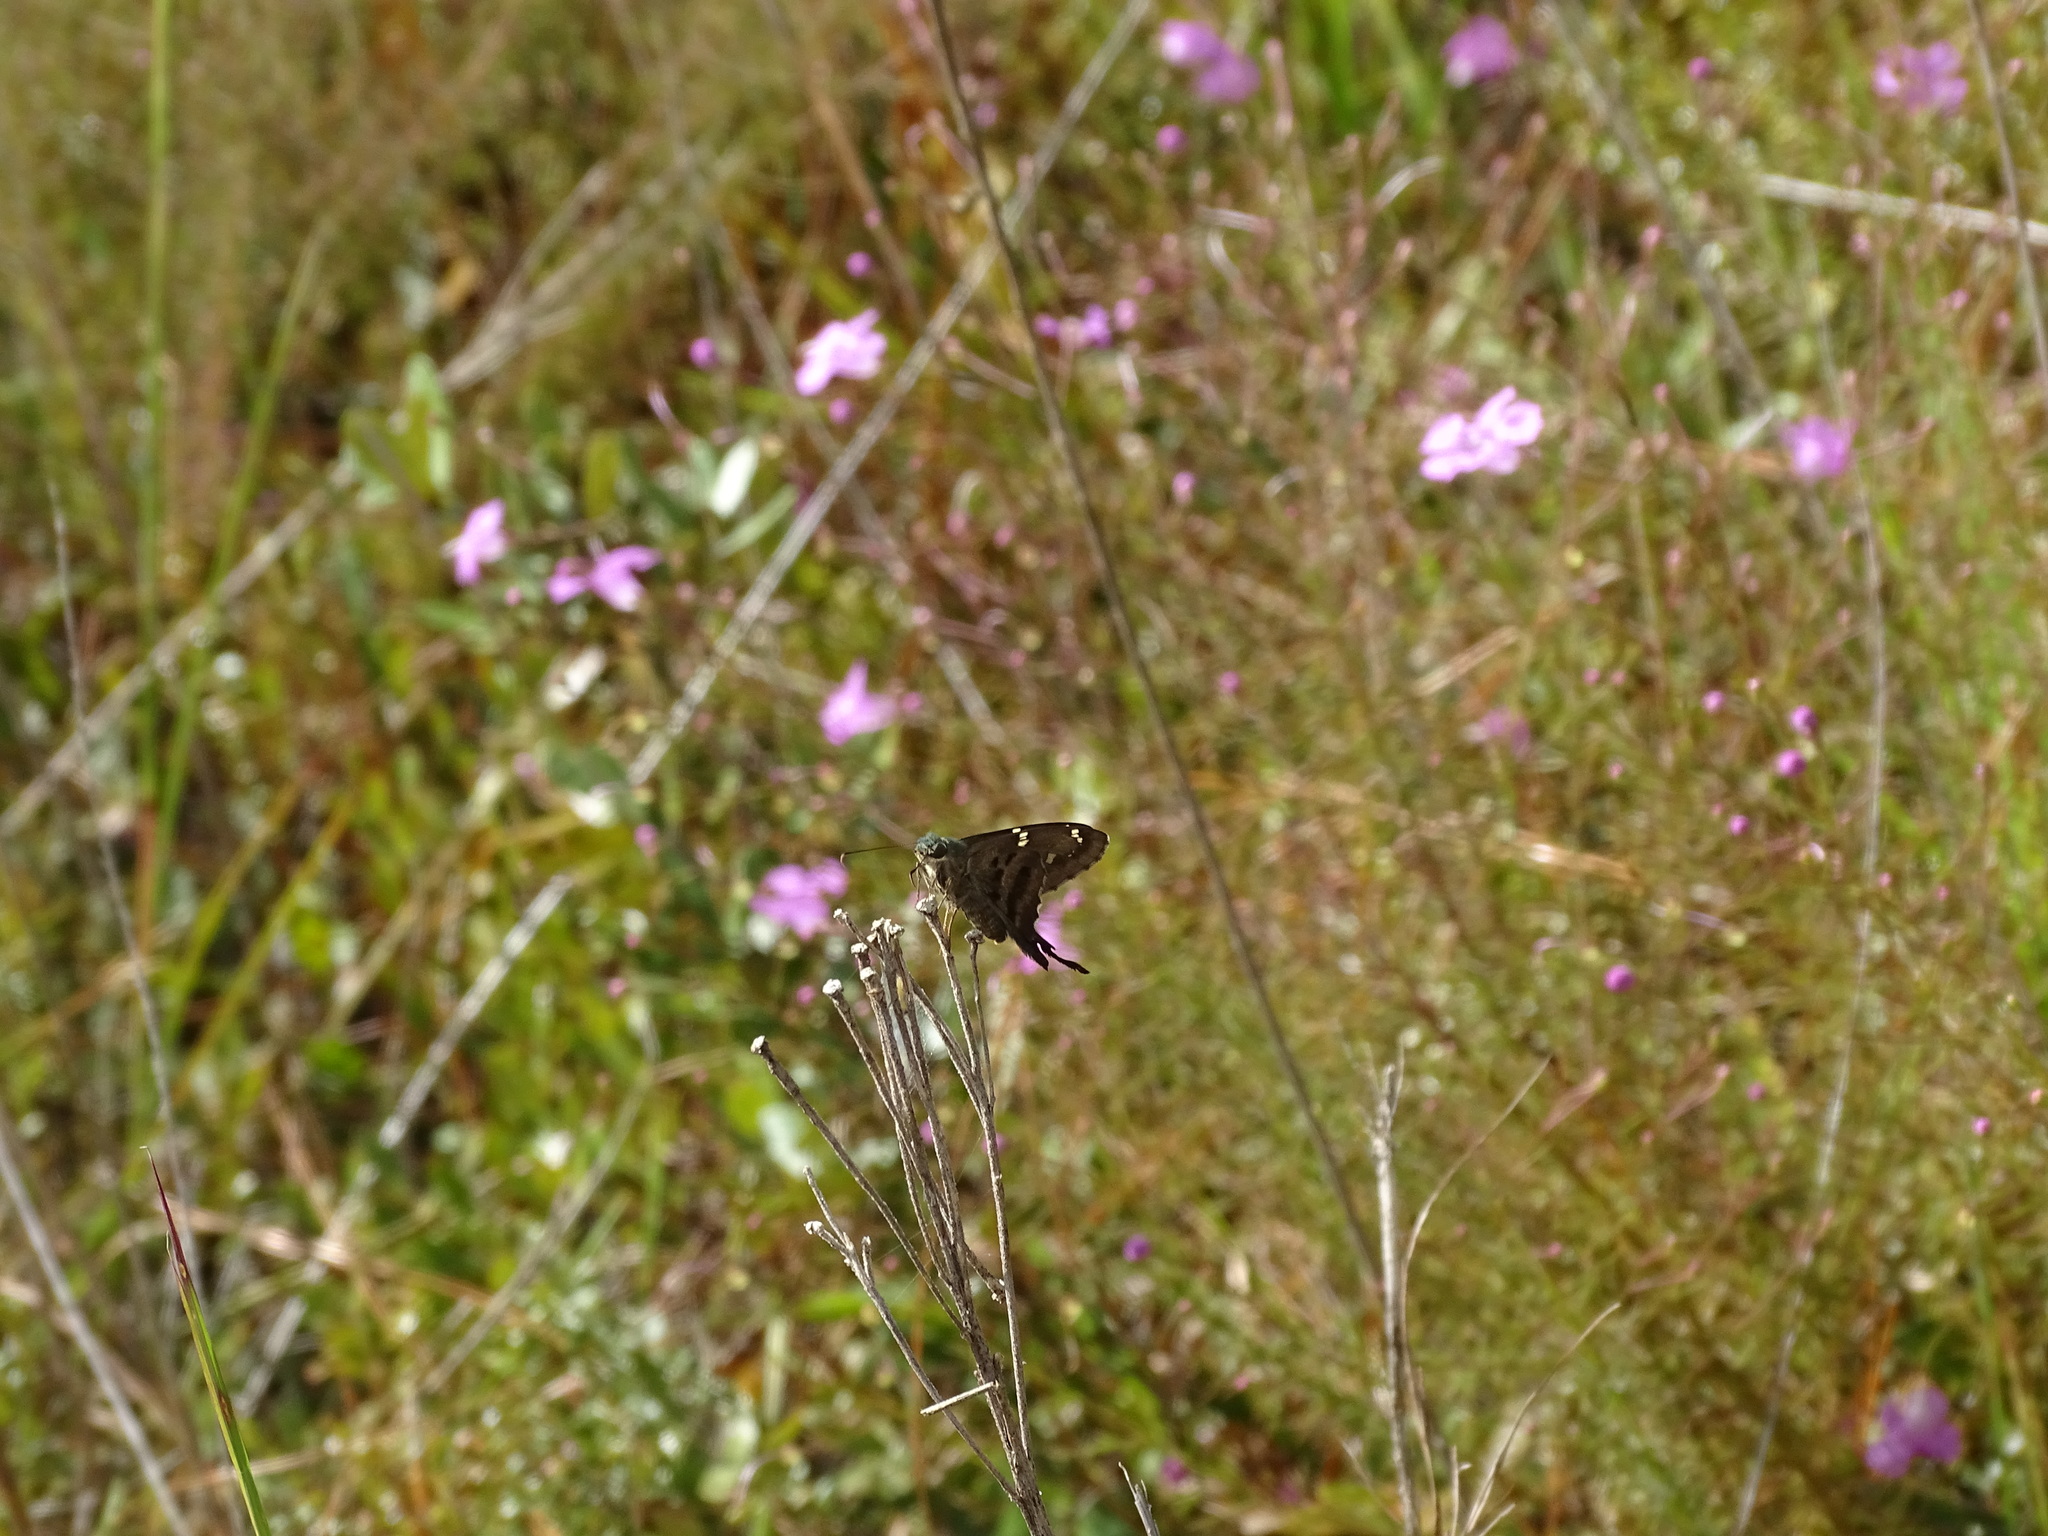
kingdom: Animalia
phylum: Arthropoda
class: Insecta
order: Lepidoptera
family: Hesperiidae
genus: Urbanus
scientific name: Urbanus proteus
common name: Long-tailed skipper
